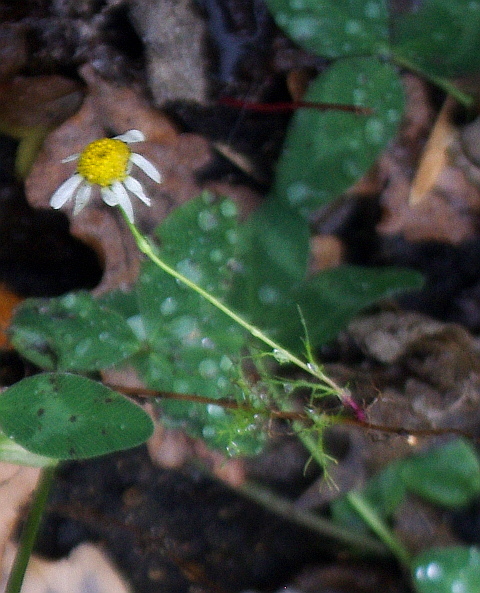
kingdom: Plantae
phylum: Tracheophyta
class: Magnoliopsida
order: Asterales
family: Asteraceae
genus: Tripleurospermum
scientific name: Tripleurospermum inodorum
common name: Scentless mayweed
